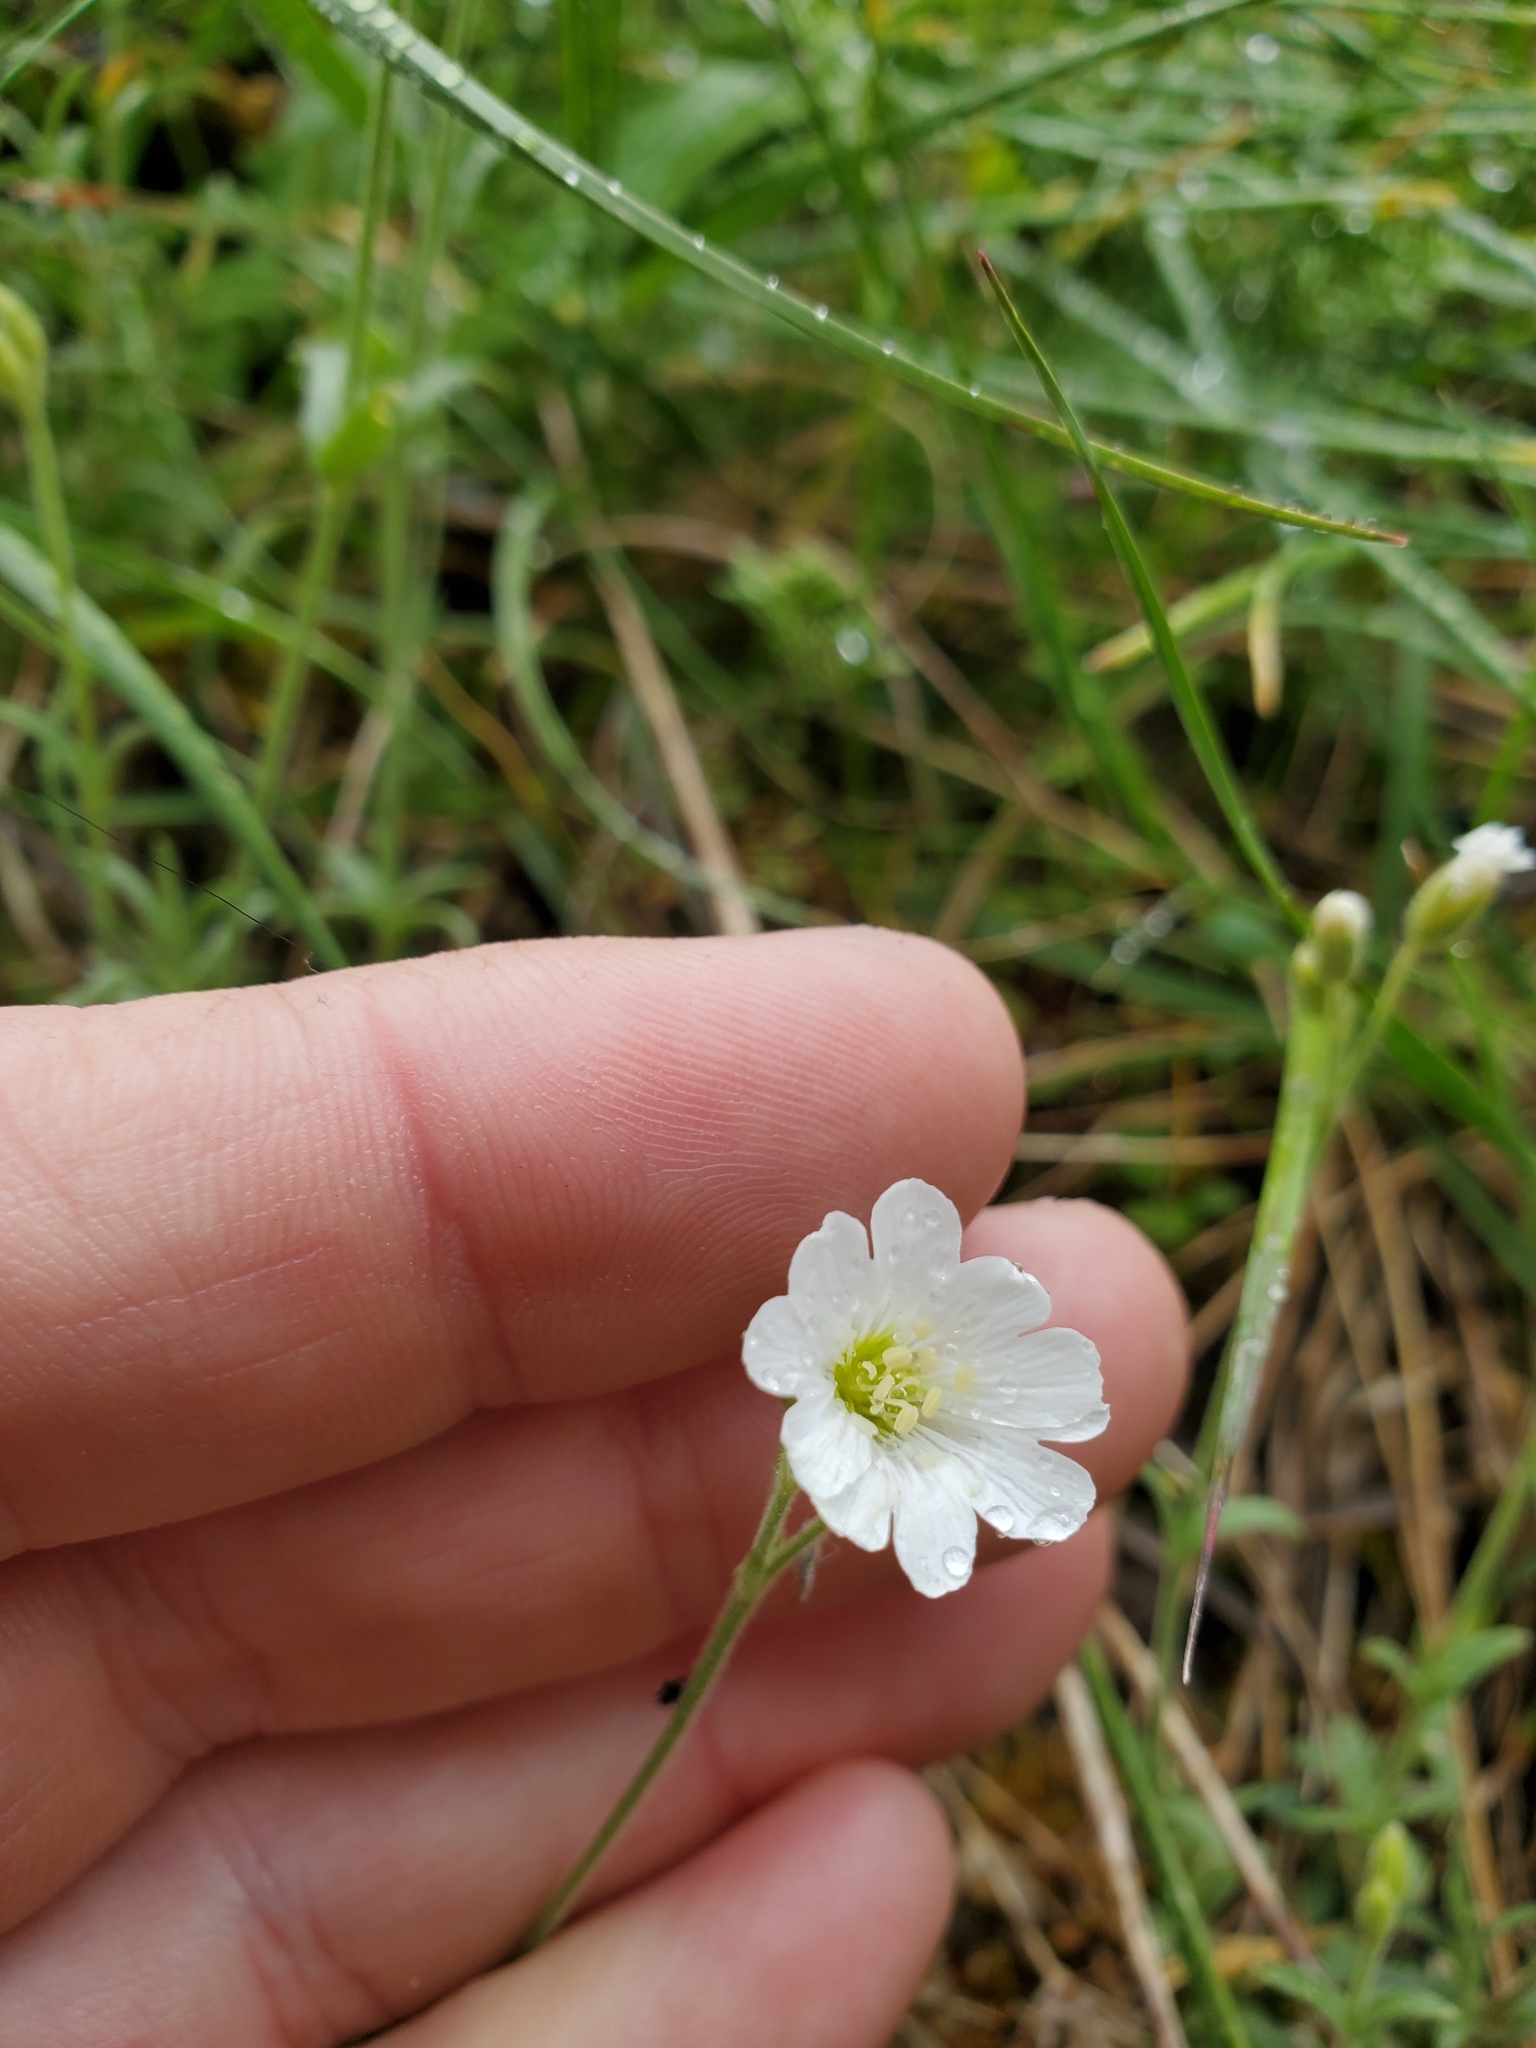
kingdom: Plantae
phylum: Tracheophyta
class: Magnoliopsida
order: Caryophyllales
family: Caryophyllaceae
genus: Cerastium
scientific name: Cerastium arvense
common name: Field mouse-ear
